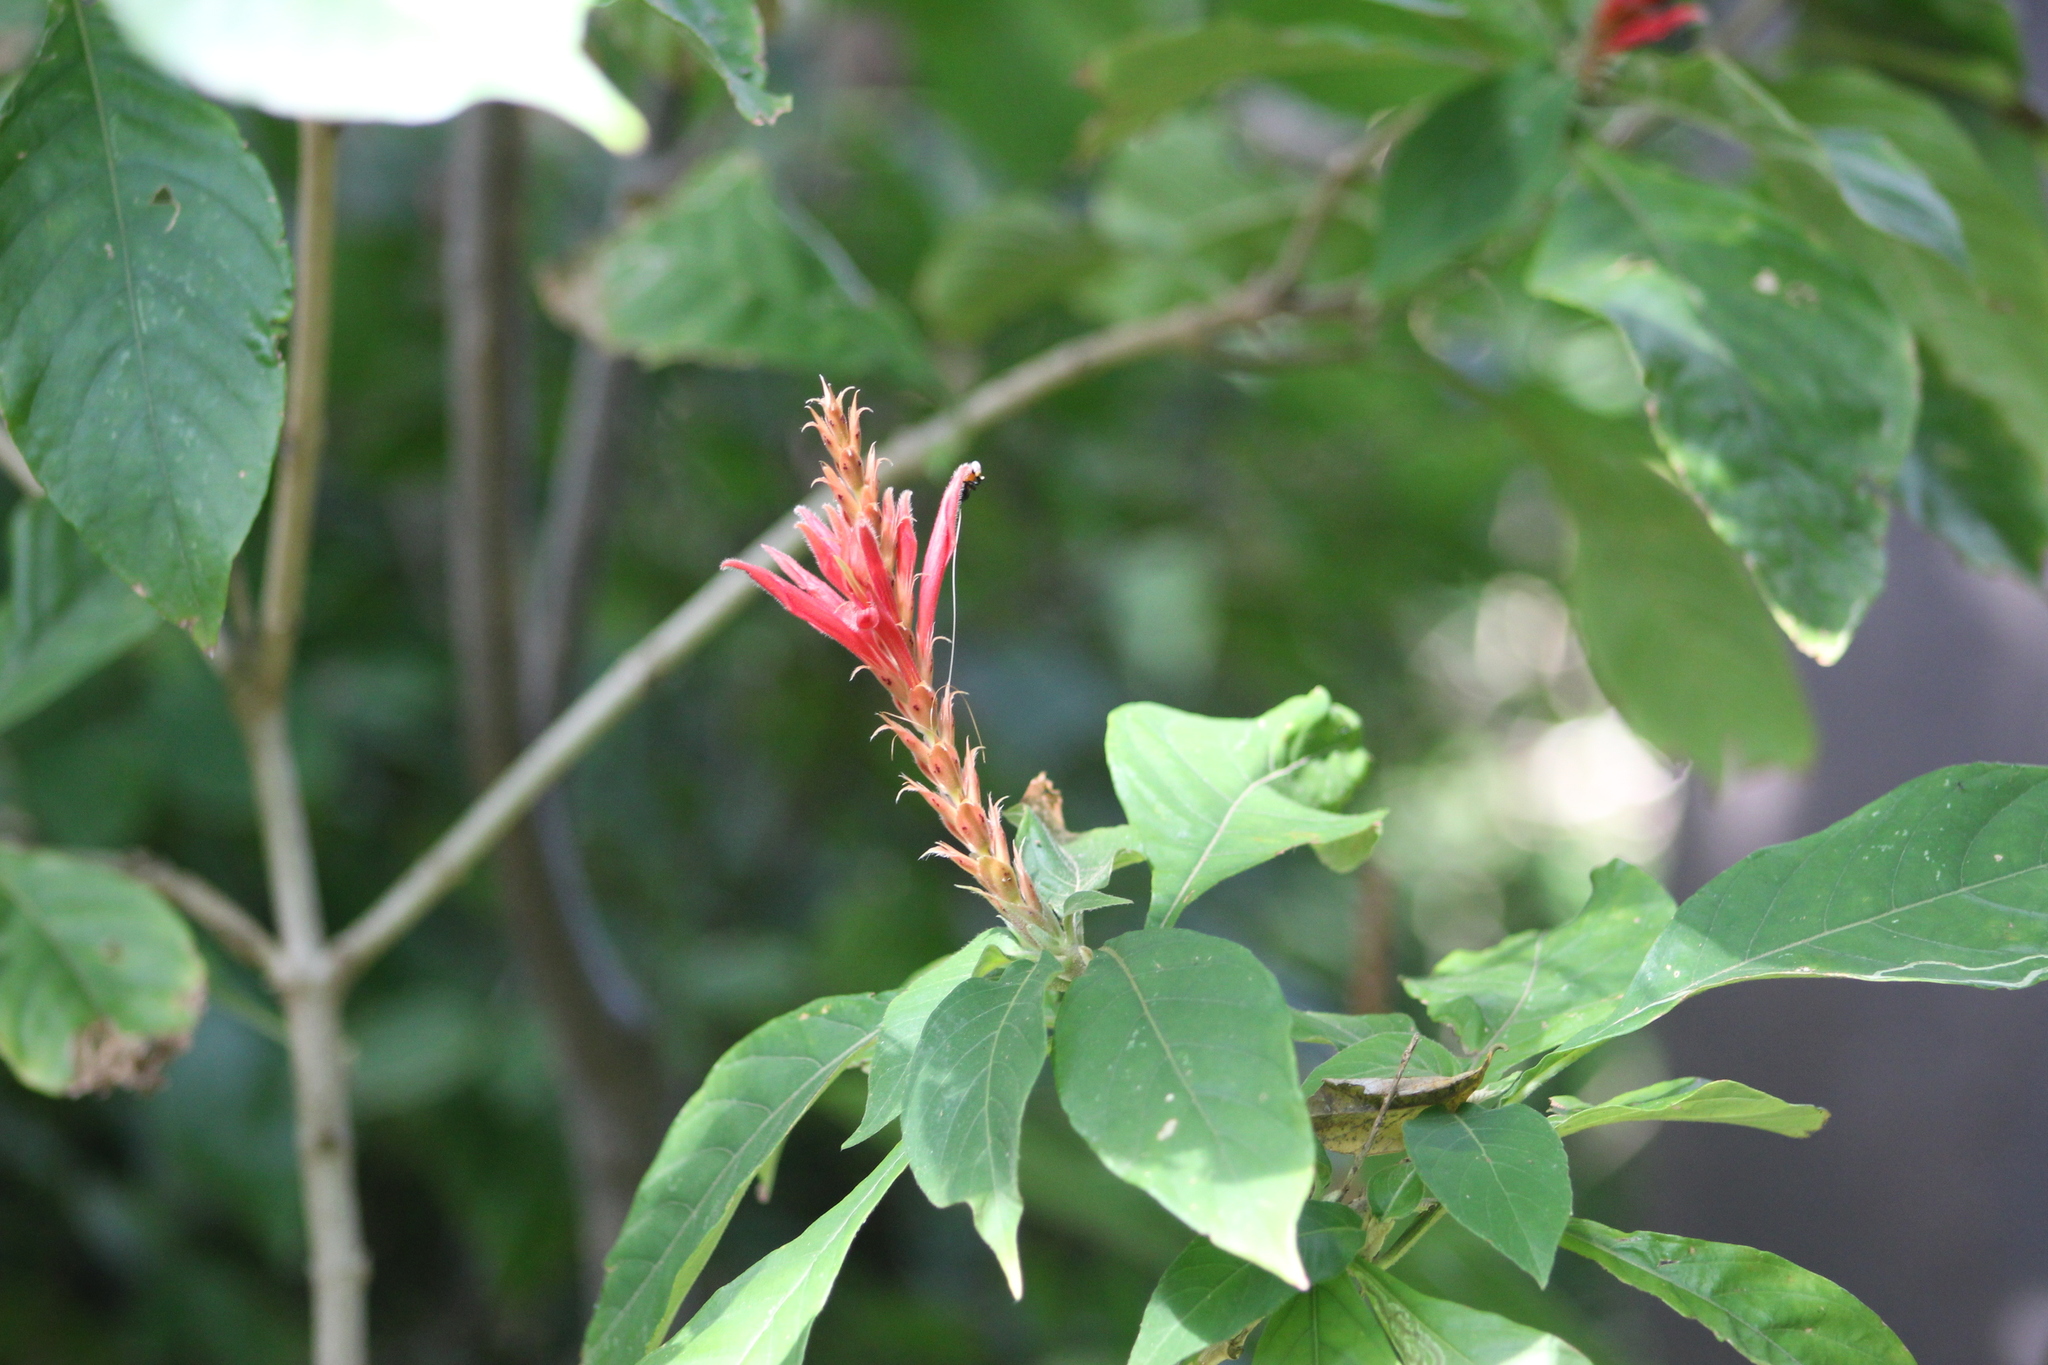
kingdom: Plantae
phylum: Tracheophyta
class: Magnoliopsida
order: Lamiales
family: Acanthaceae
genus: Aphelandra
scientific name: Aphelandra scabra
